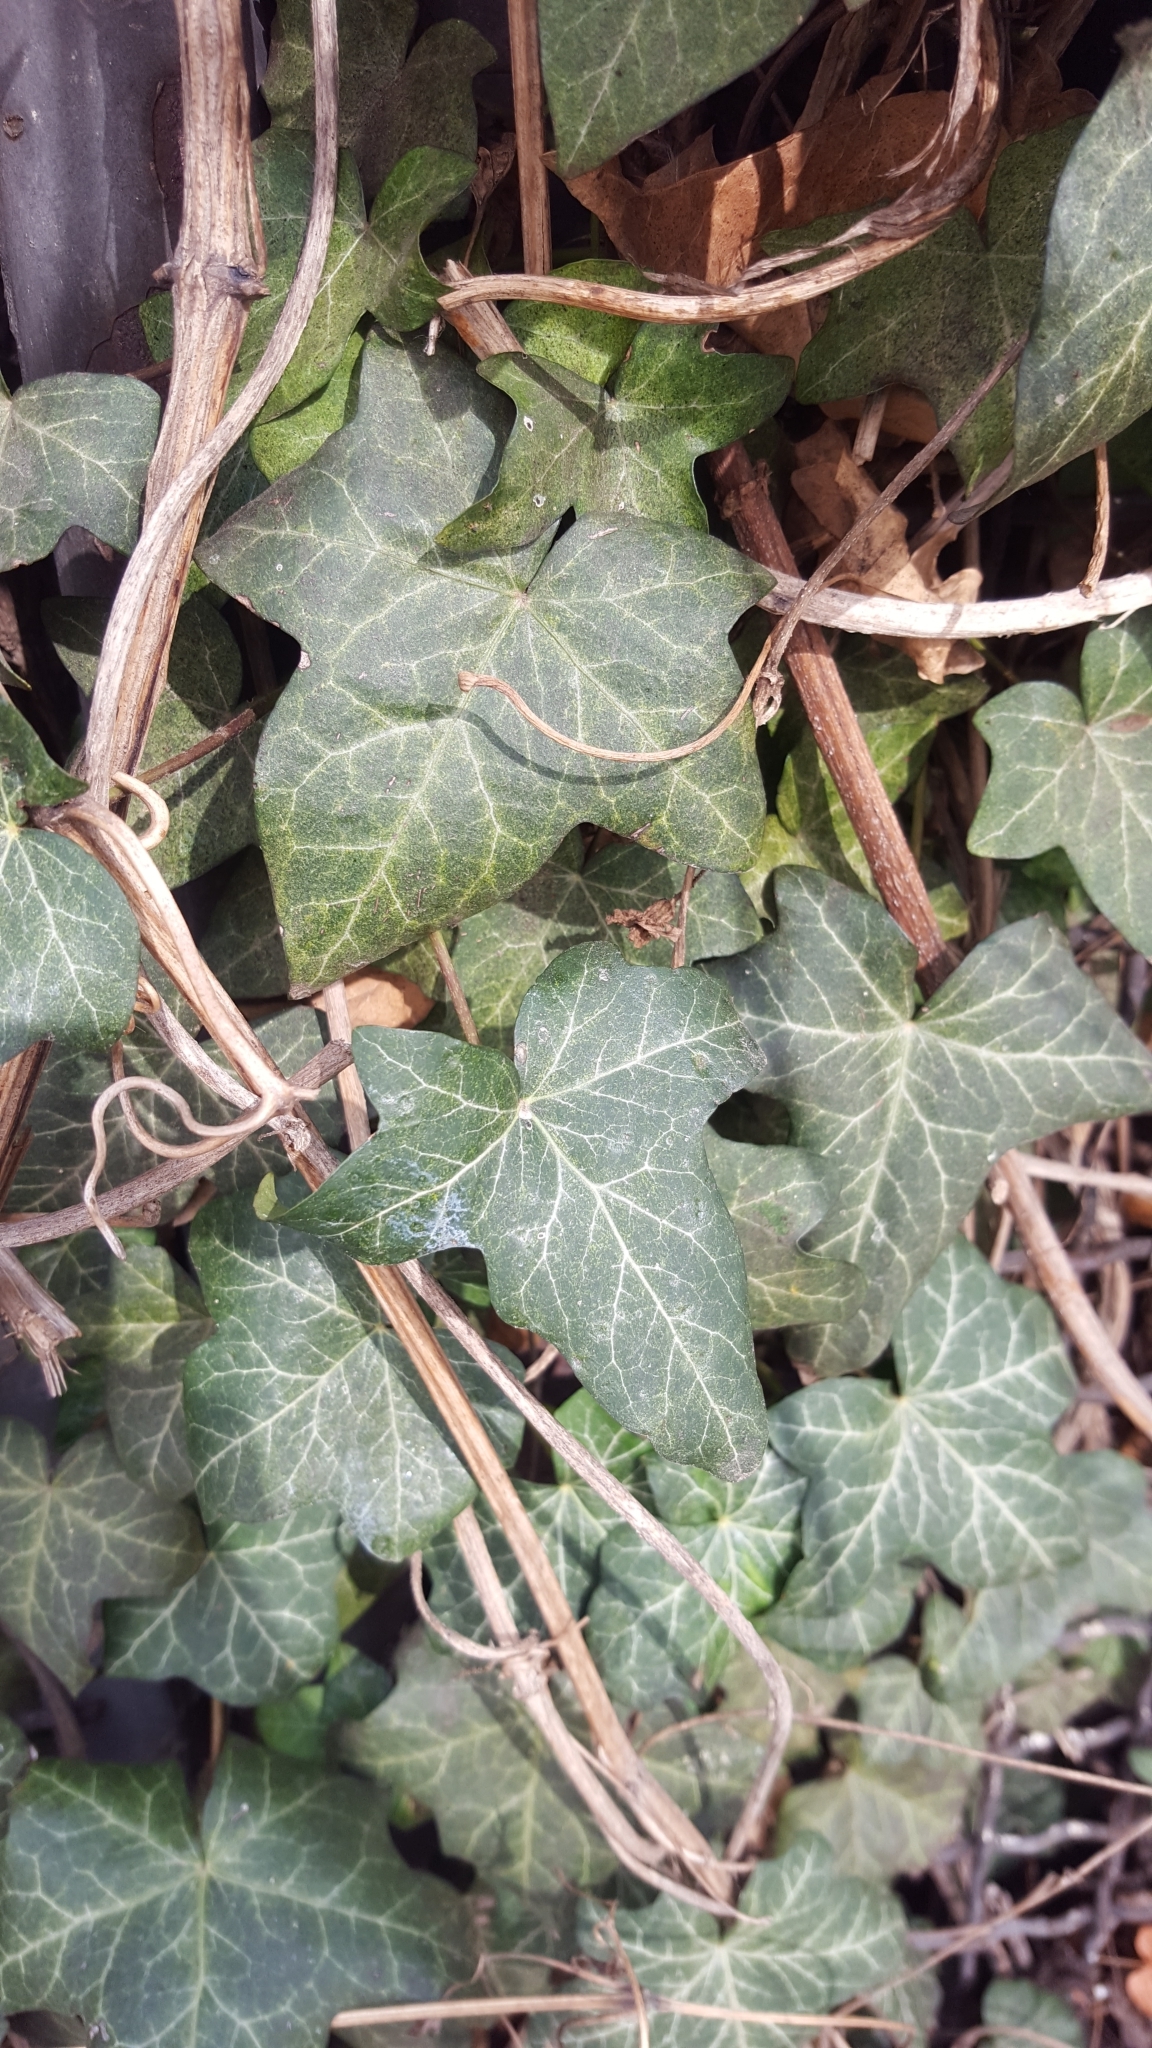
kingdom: Plantae
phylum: Tracheophyta
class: Magnoliopsida
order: Apiales
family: Araliaceae
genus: Hedera
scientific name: Hedera helix
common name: Ivy
